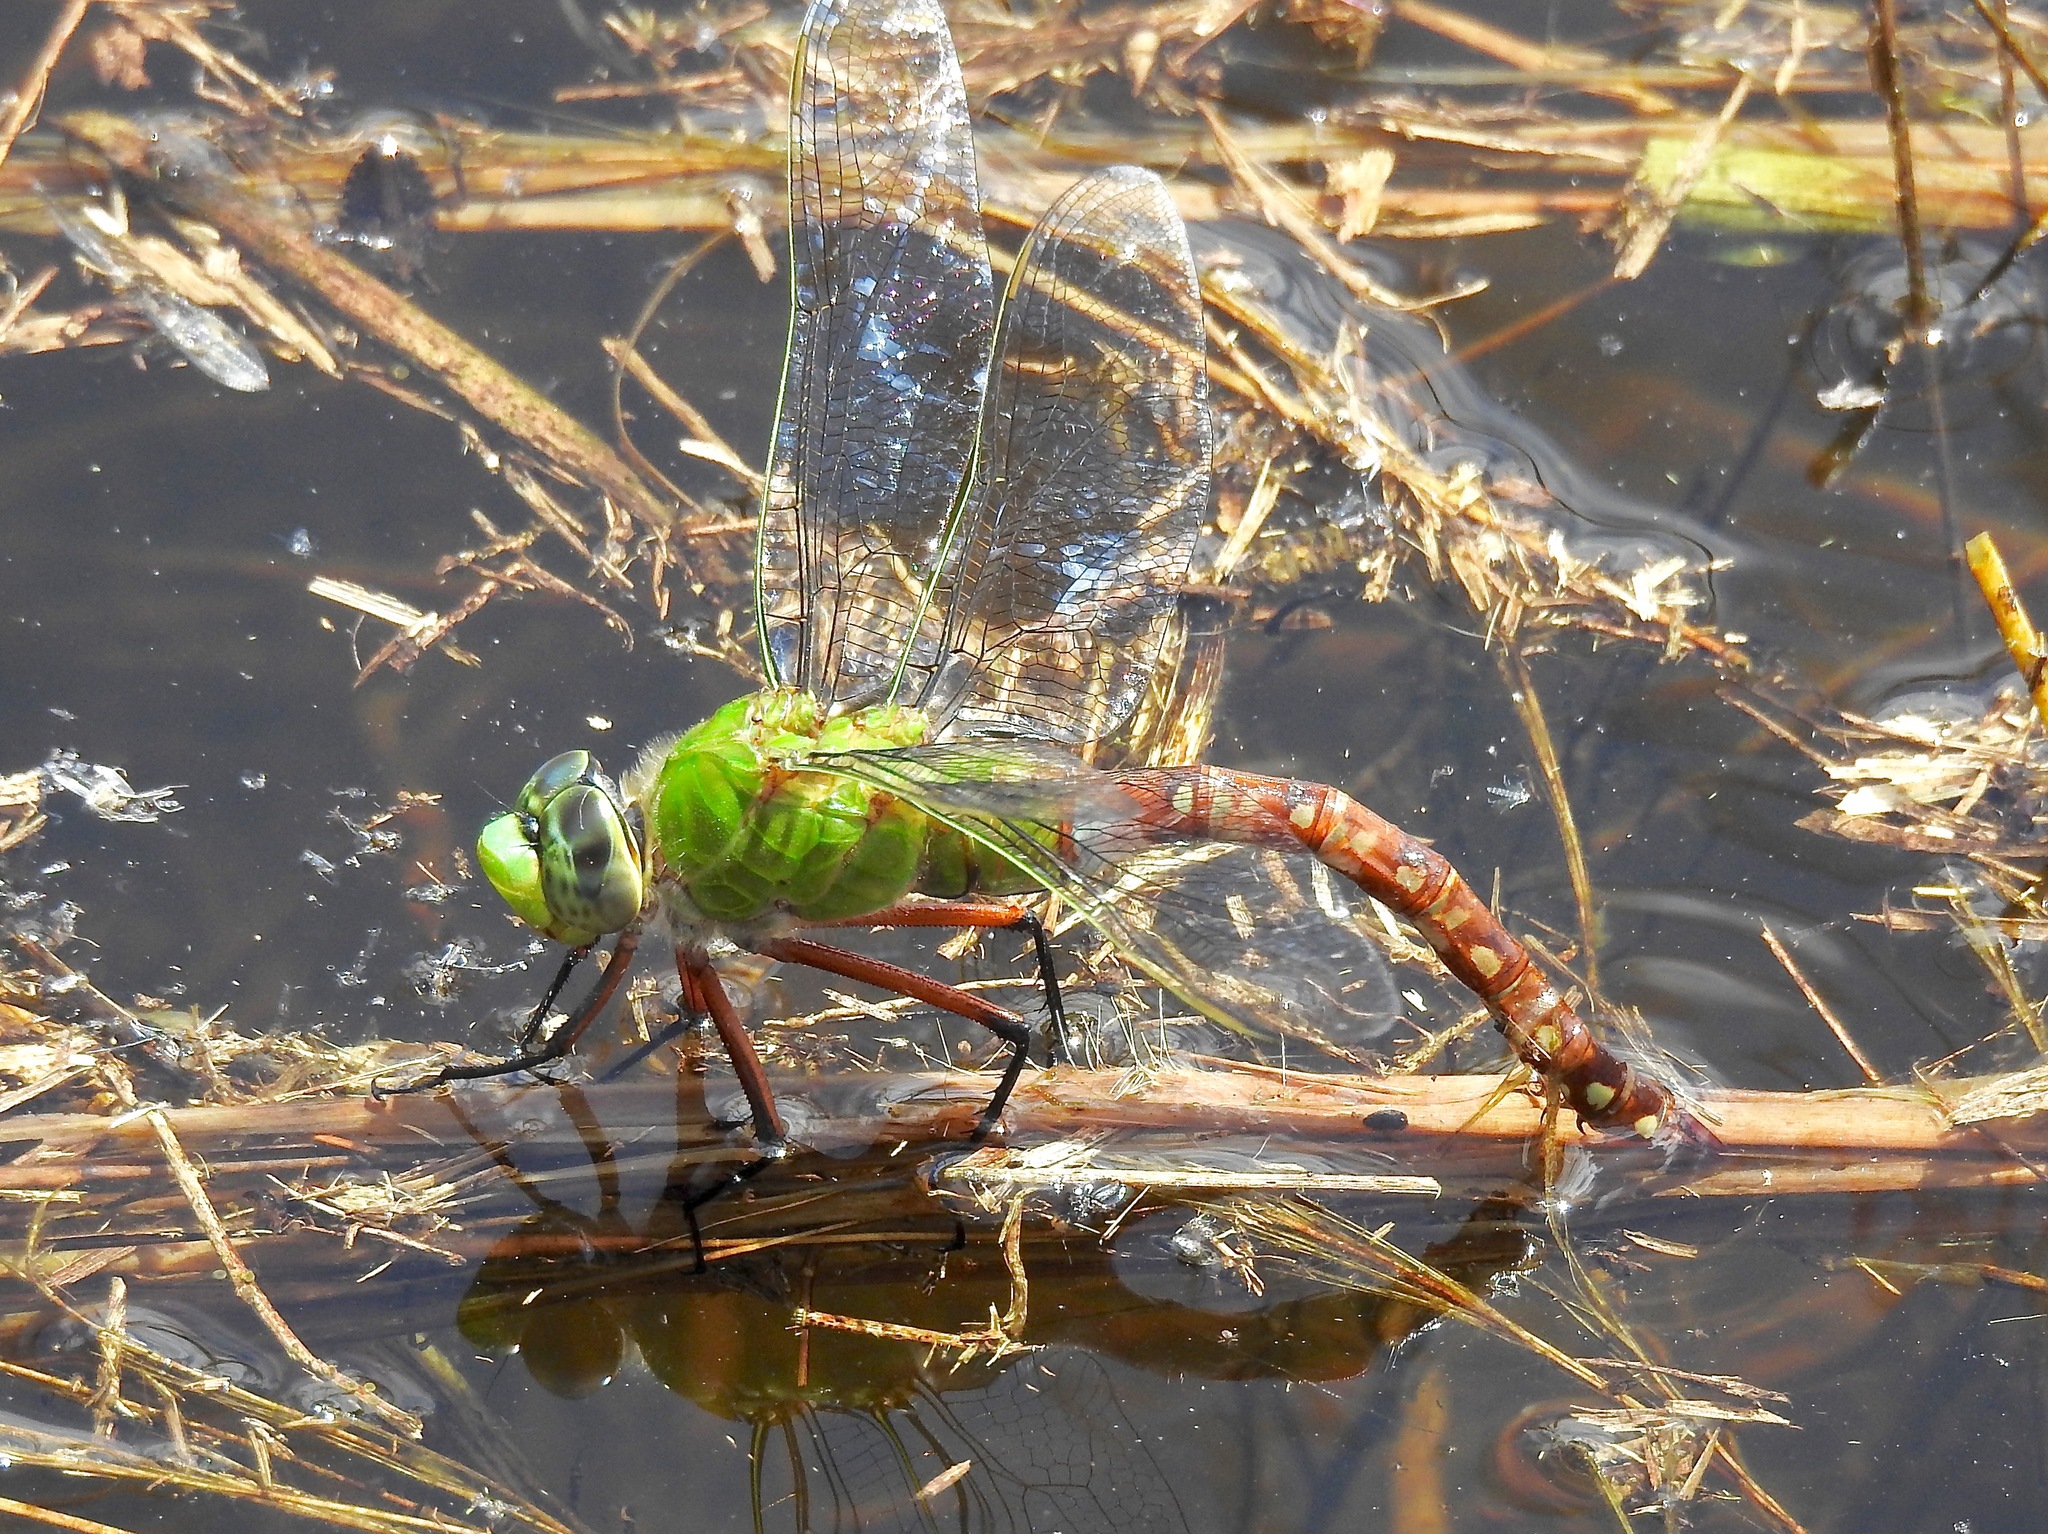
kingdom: Animalia
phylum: Arthropoda
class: Insecta
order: Odonata
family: Aeshnidae
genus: Anax
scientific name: Anax longipes
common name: Comet darner
